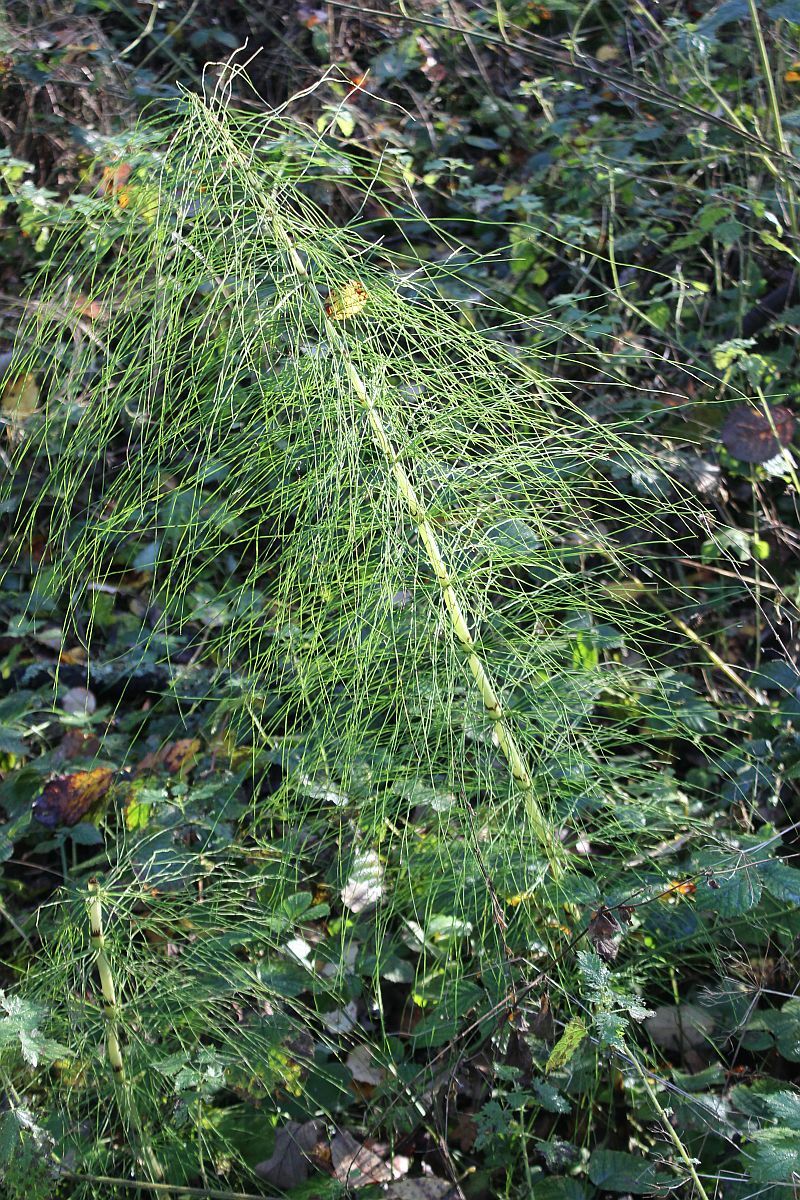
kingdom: Plantae
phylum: Tracheophyta
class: Polypodiopsida
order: Equisetales
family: Equisetaceae
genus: Equisetum
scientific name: Equisetum telmateia
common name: Great horsetail
